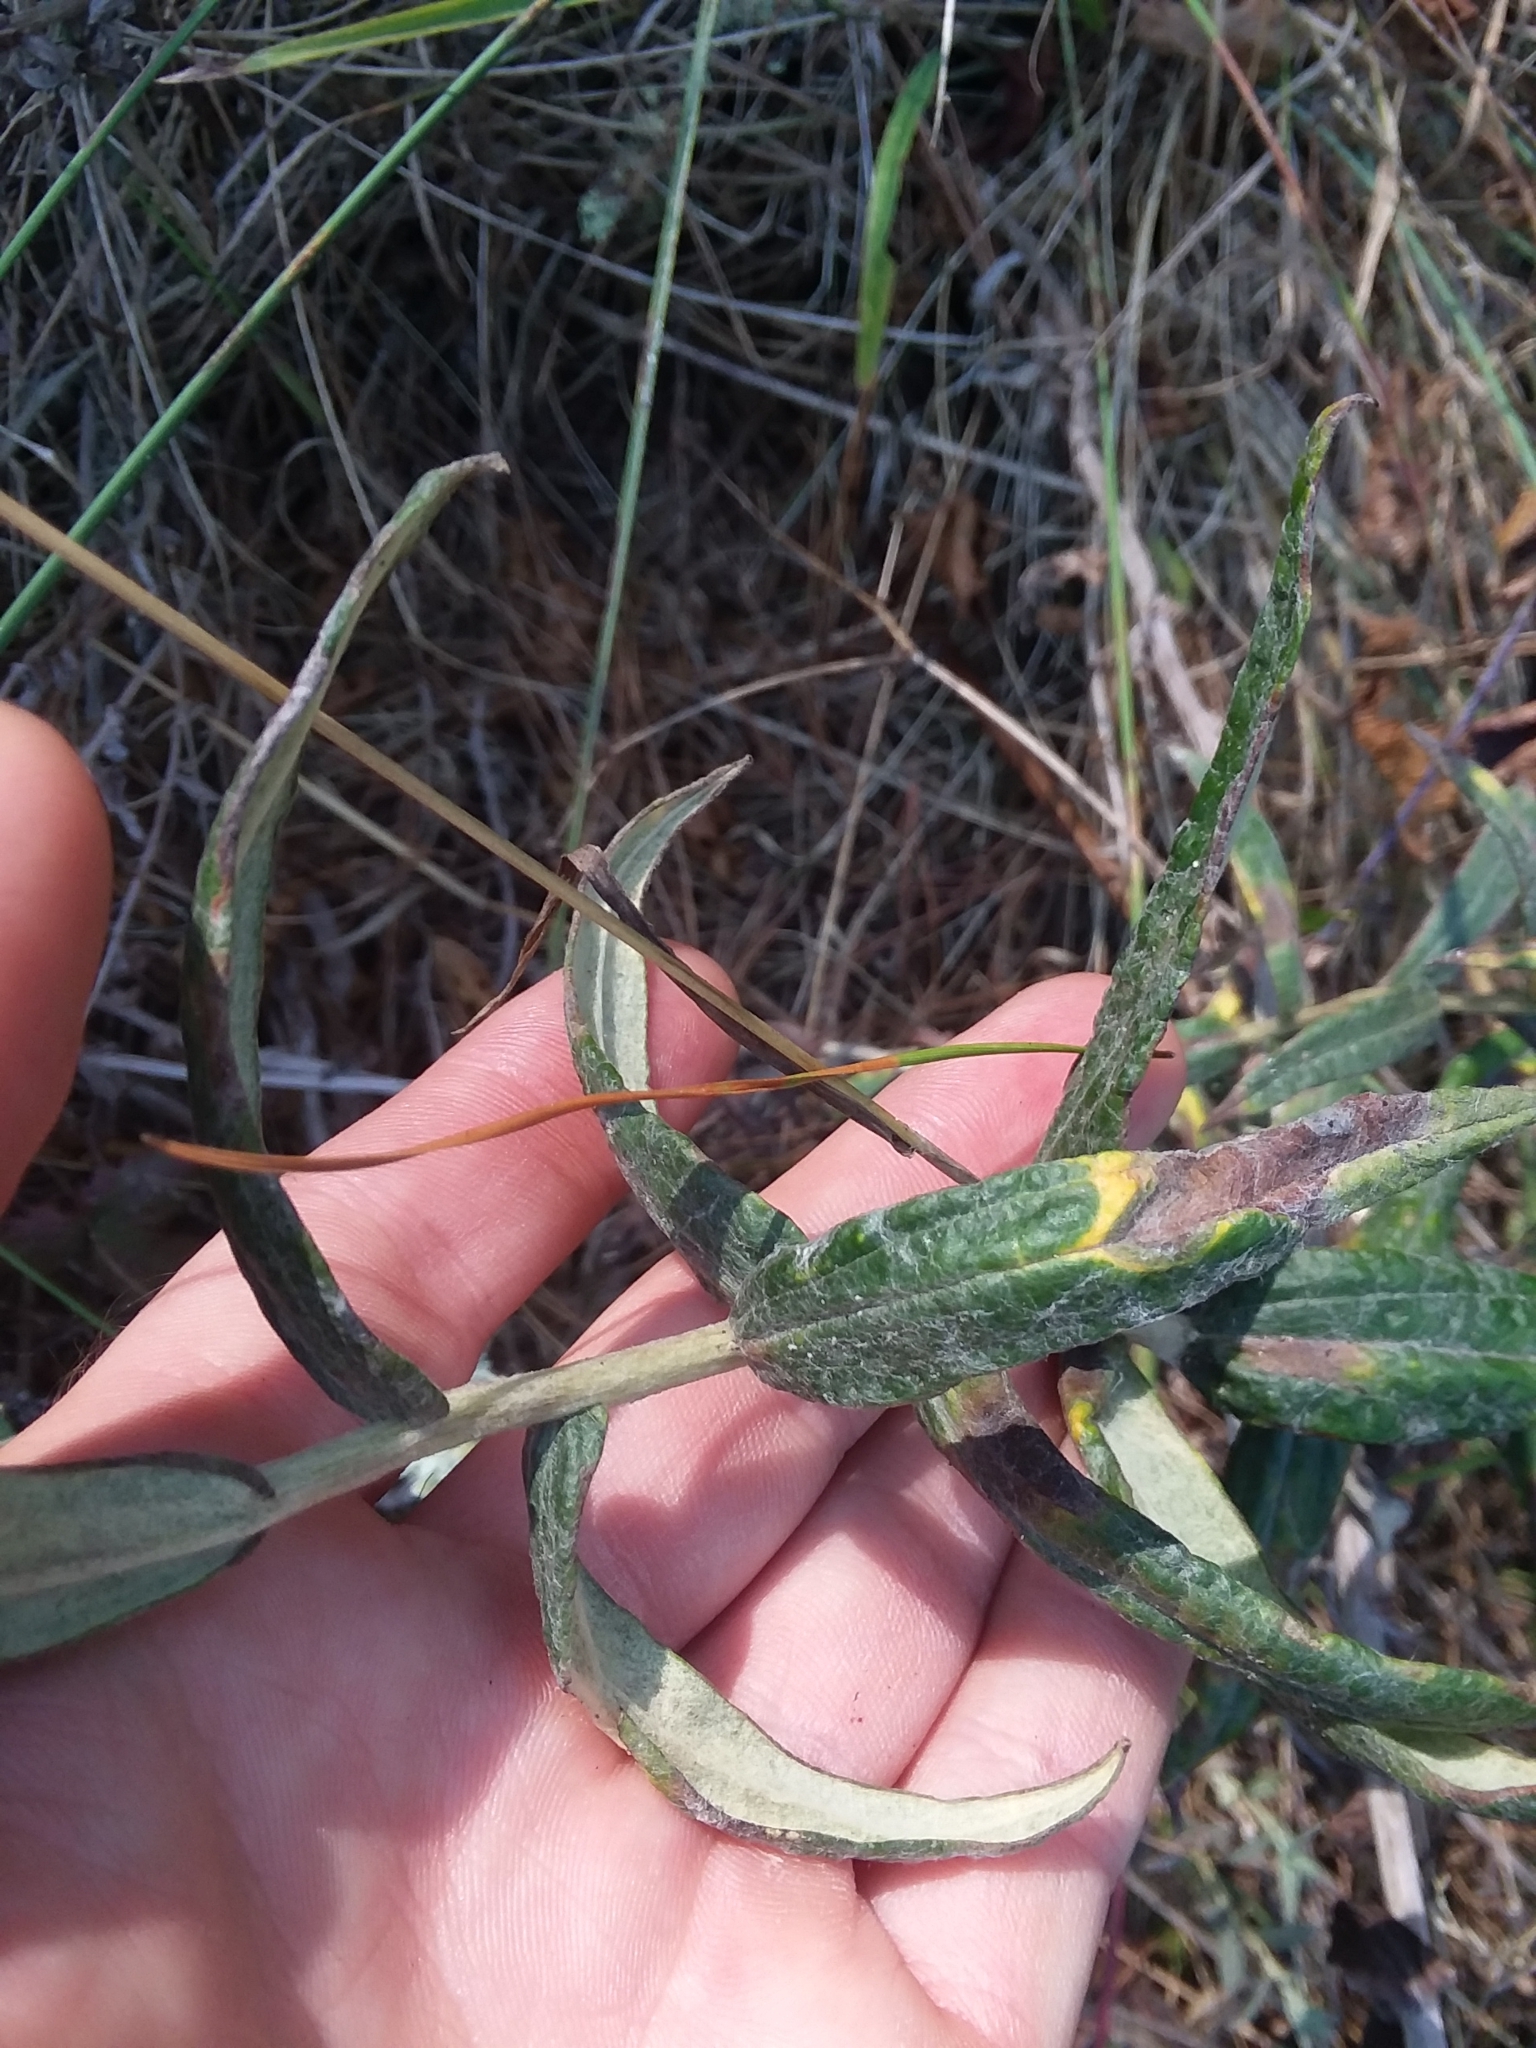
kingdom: Plantae
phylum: Tracheophyta
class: Magnoliopsida
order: Asterales
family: Asteraceae
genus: Anaphalis
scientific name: Anaphalis margaritacea
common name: Pearly everlasting
